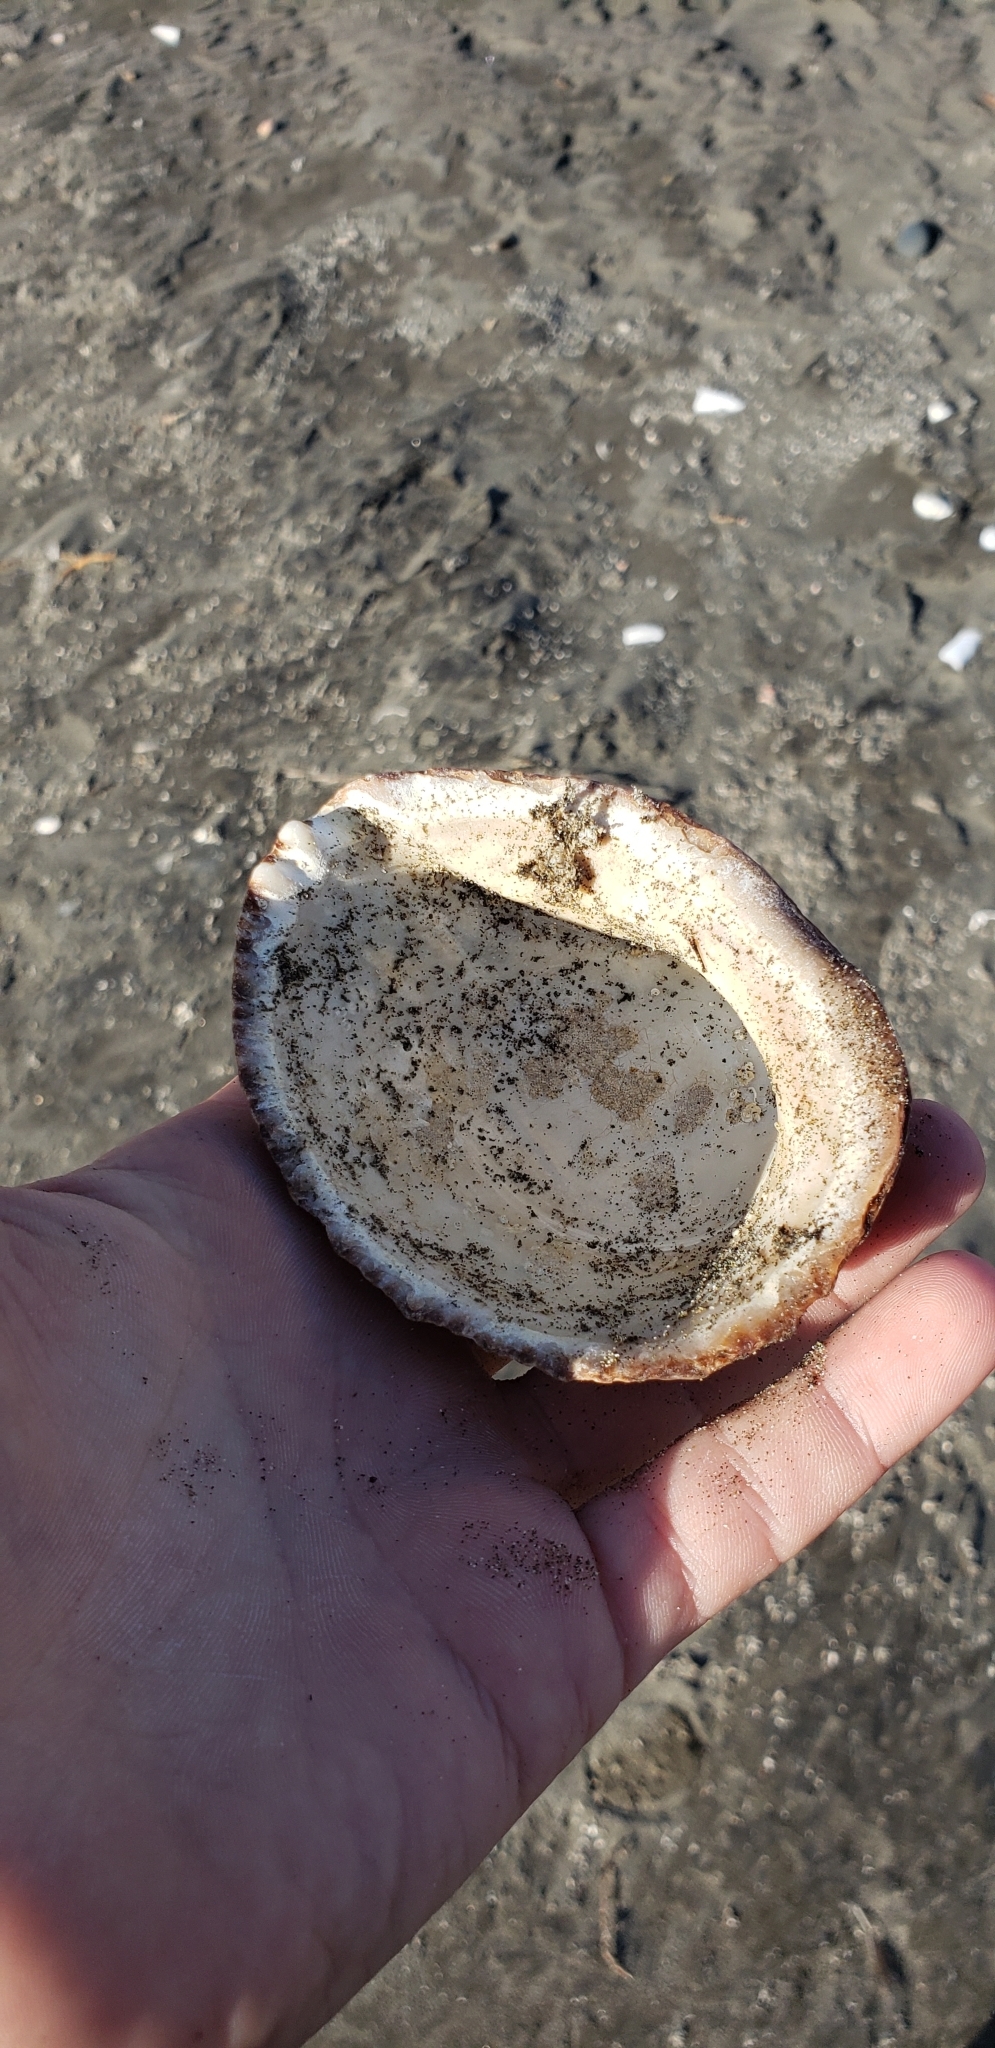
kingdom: Animalia
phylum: Mollusca
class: Gastropoda
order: Neogastropoda
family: Muricidae
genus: Concholepas
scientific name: Concholepas concholepas
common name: Chilean abalone
